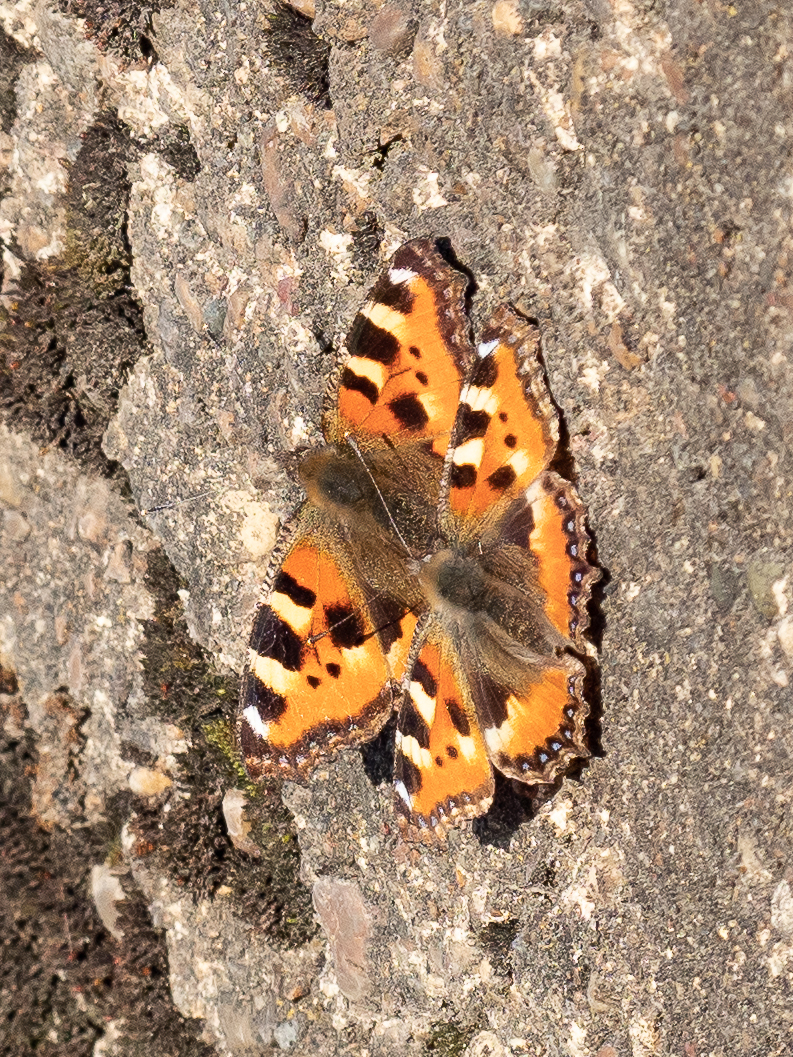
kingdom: Animalia
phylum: Arthropoda
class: Insecta
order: Lepidoptera
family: Nymphalidae
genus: Aglais
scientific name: Aglais urticae
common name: Small tortoiseshell
